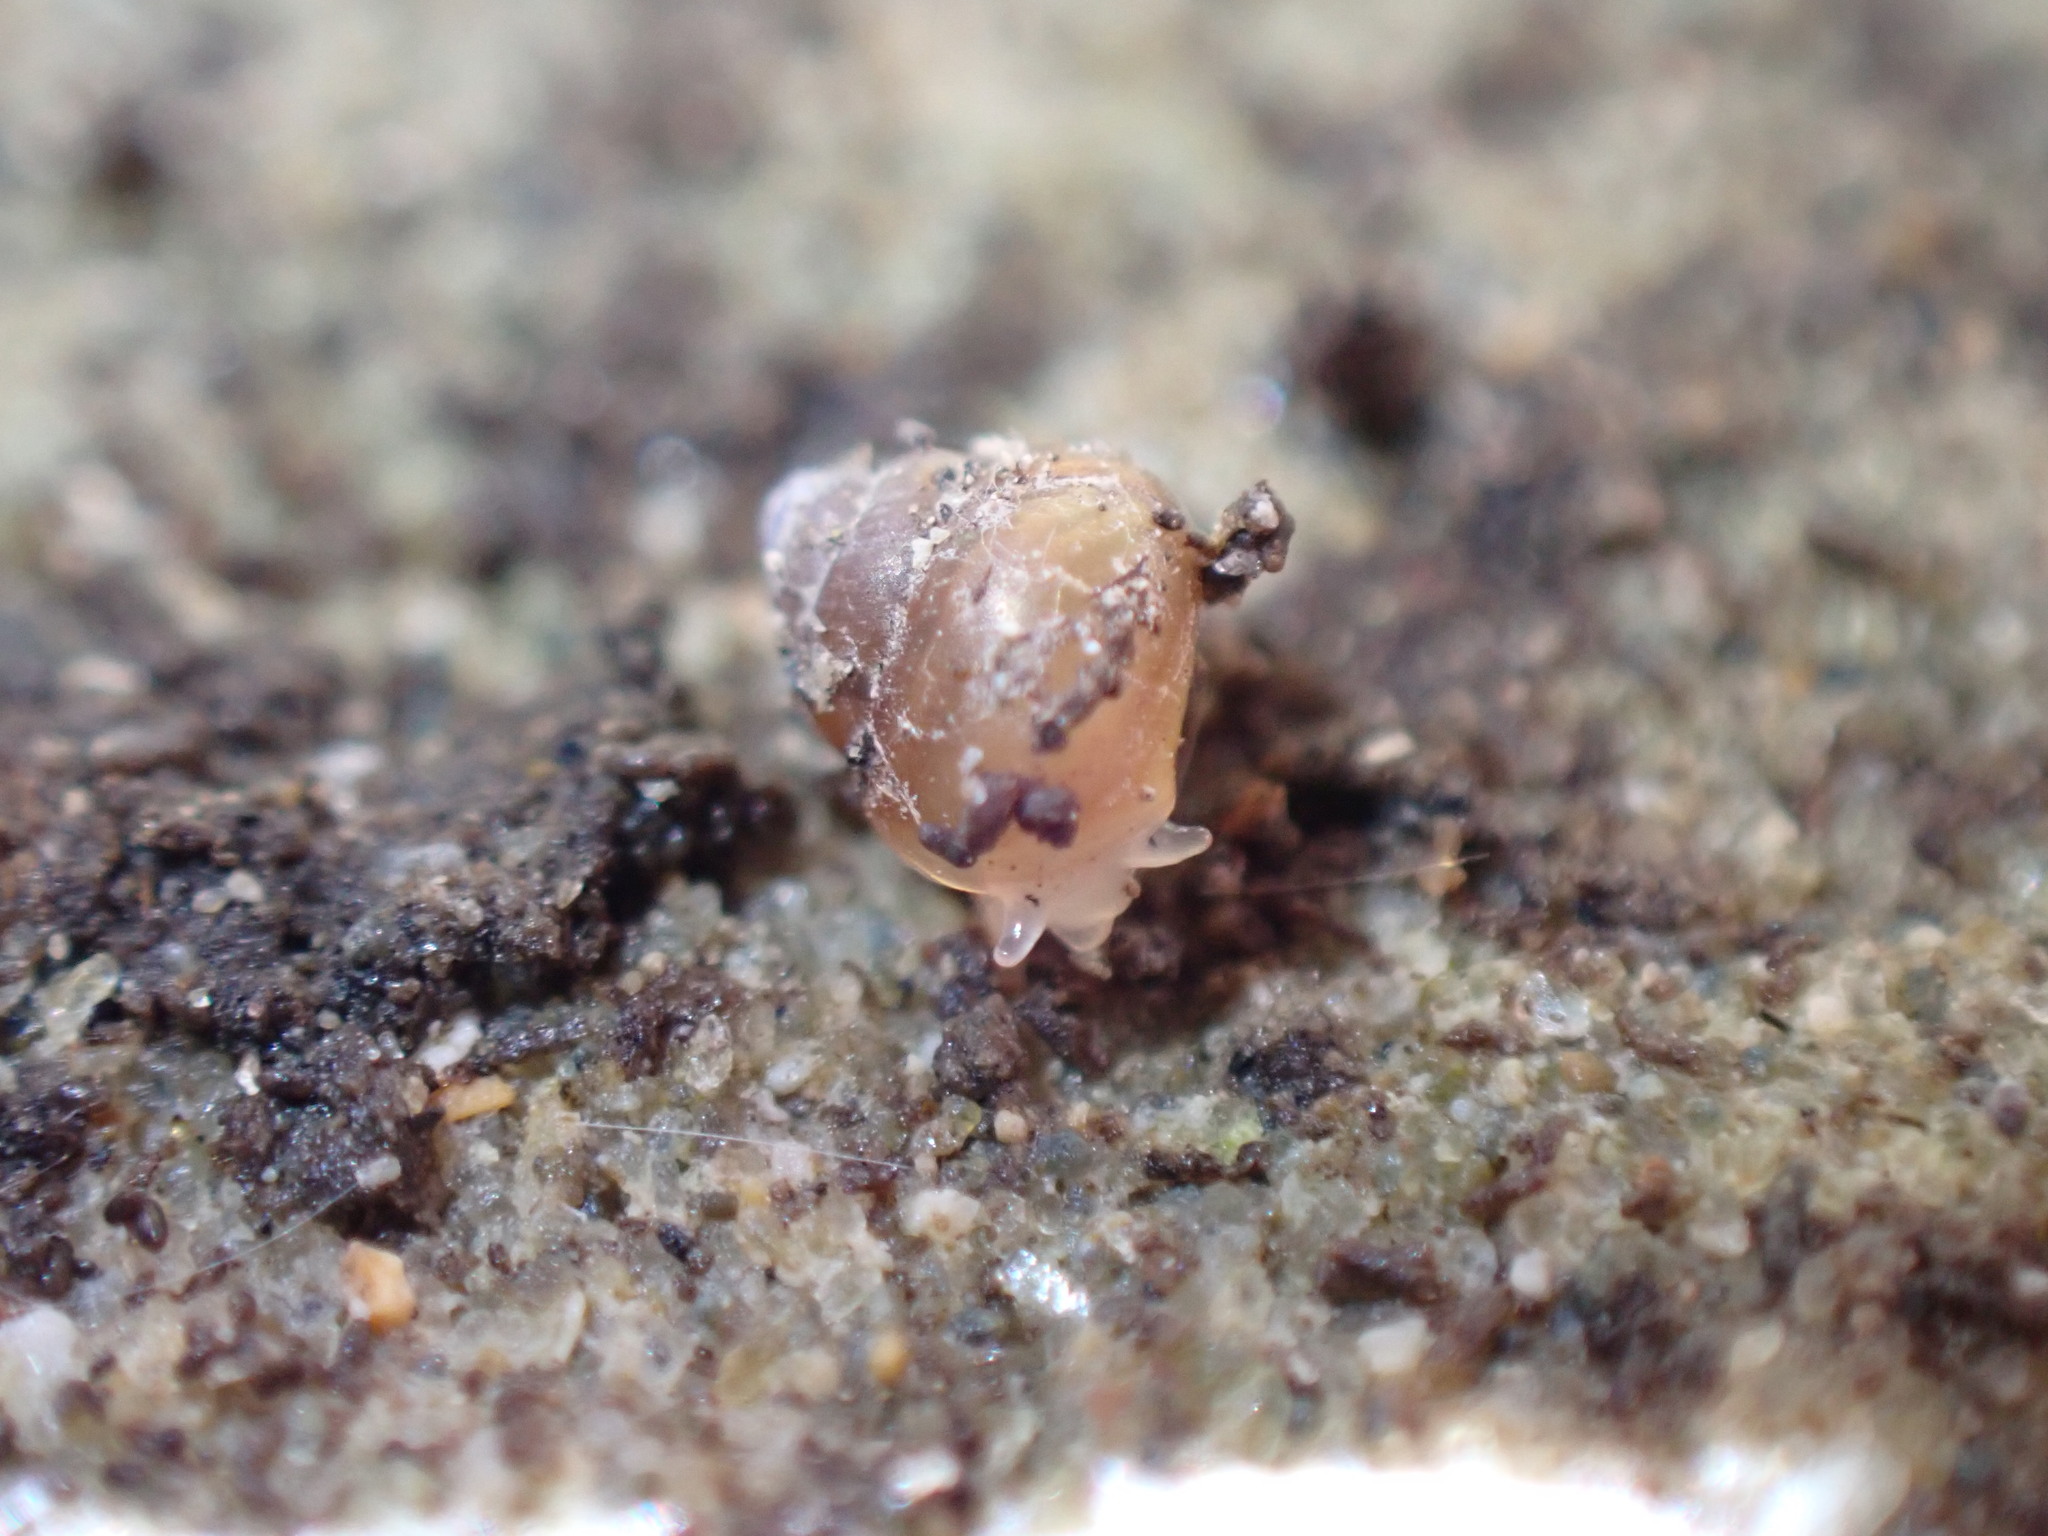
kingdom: Animalia
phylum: Mollusca
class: Gastropoda
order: Littorinimorpha
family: Assimineidae
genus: Suterilla
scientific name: Suterilla neozelanica
